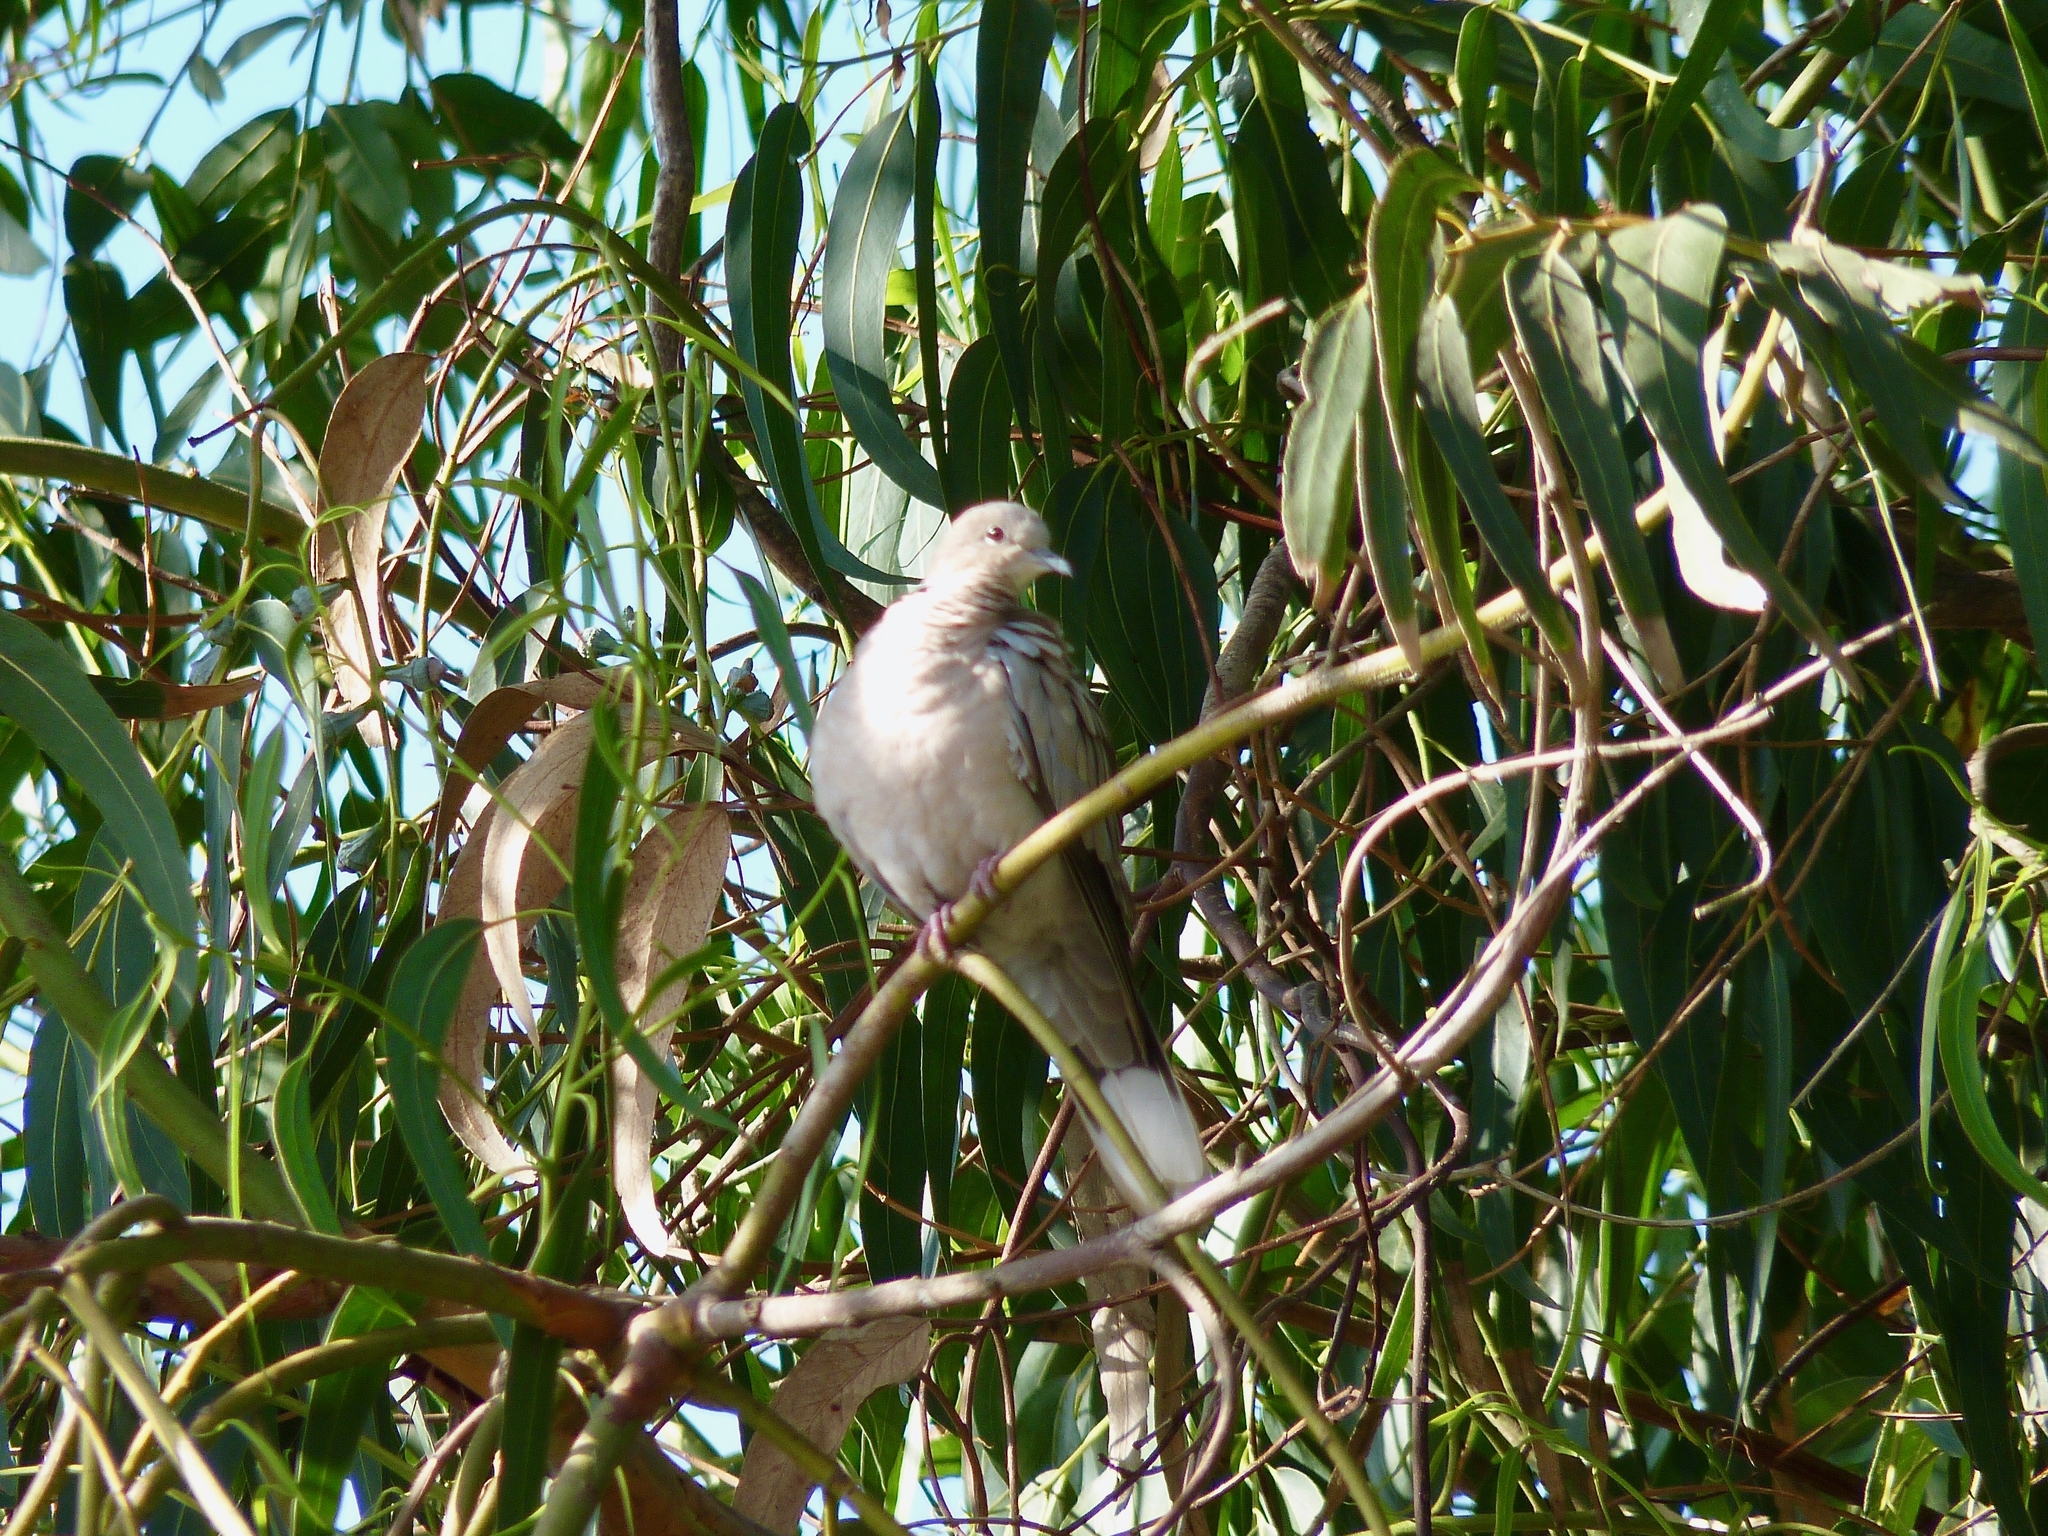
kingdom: Animalia
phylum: Chordata
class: Aves
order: Columbiformes
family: Columbidae
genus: Streptopelia
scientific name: Streptopelia decaocto
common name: Eurasian collared dove
